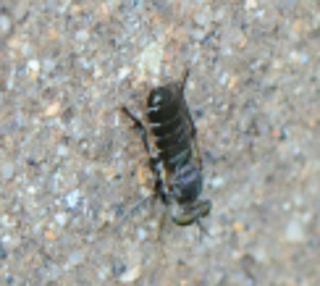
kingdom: Animalia
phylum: Arthropoda
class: Insecta
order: Diptera
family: Asilidae
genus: Atomosia
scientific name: Atomosia puella
